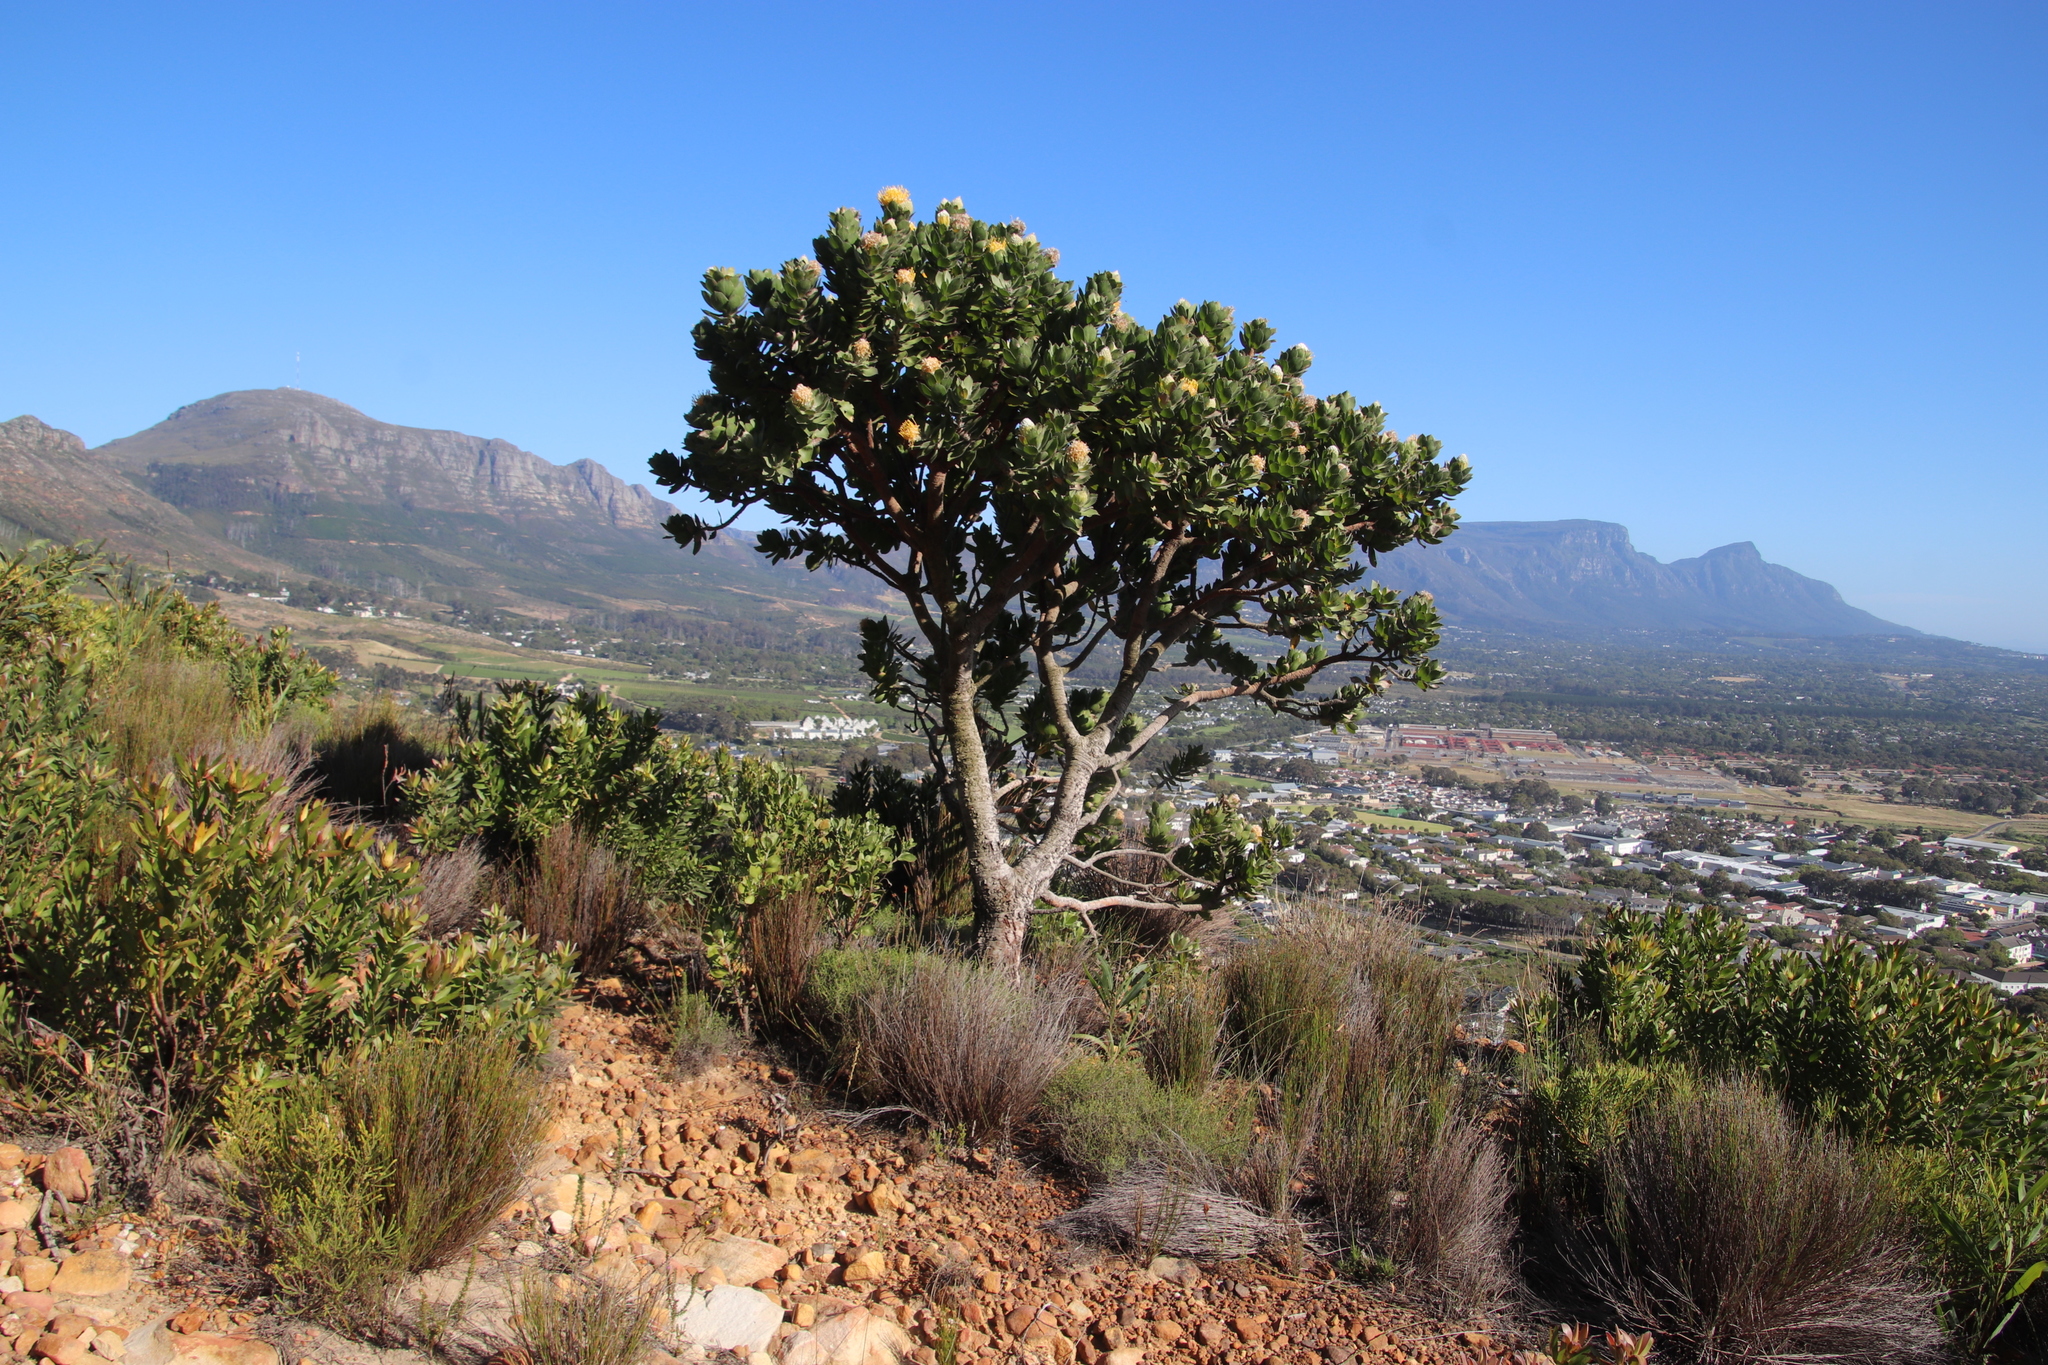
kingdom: Plantae
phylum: Tracheophyta
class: Magnoliopsida
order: Proteales
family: Proteaceae
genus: Leucospermum
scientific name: Leucospermum conocarpodendron
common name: Tree pincushion
